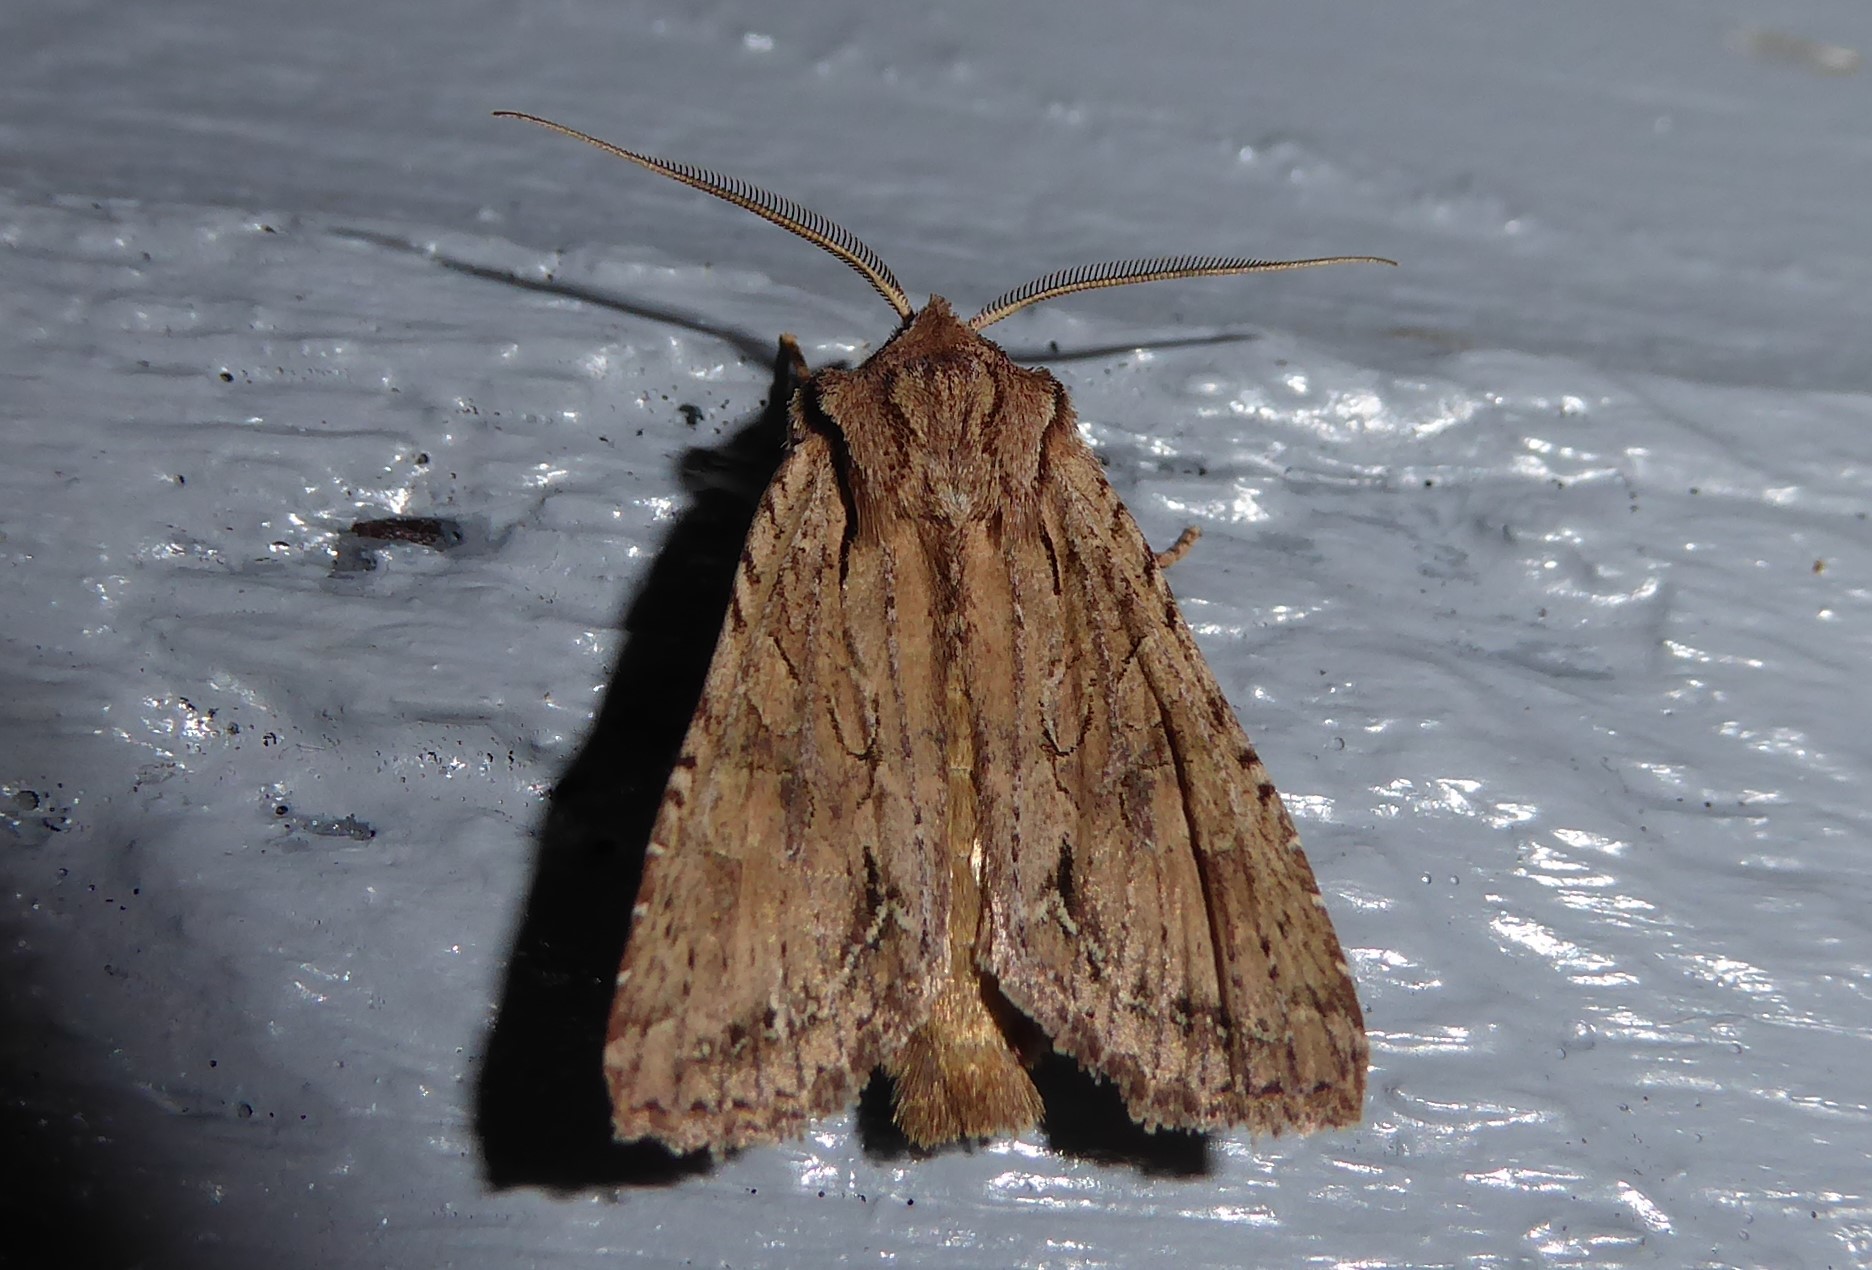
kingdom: Animalia
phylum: Arthropoda
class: Insecta
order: Lepidoptera
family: Noctuidae
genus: Ichneutica
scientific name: Ichneutica
